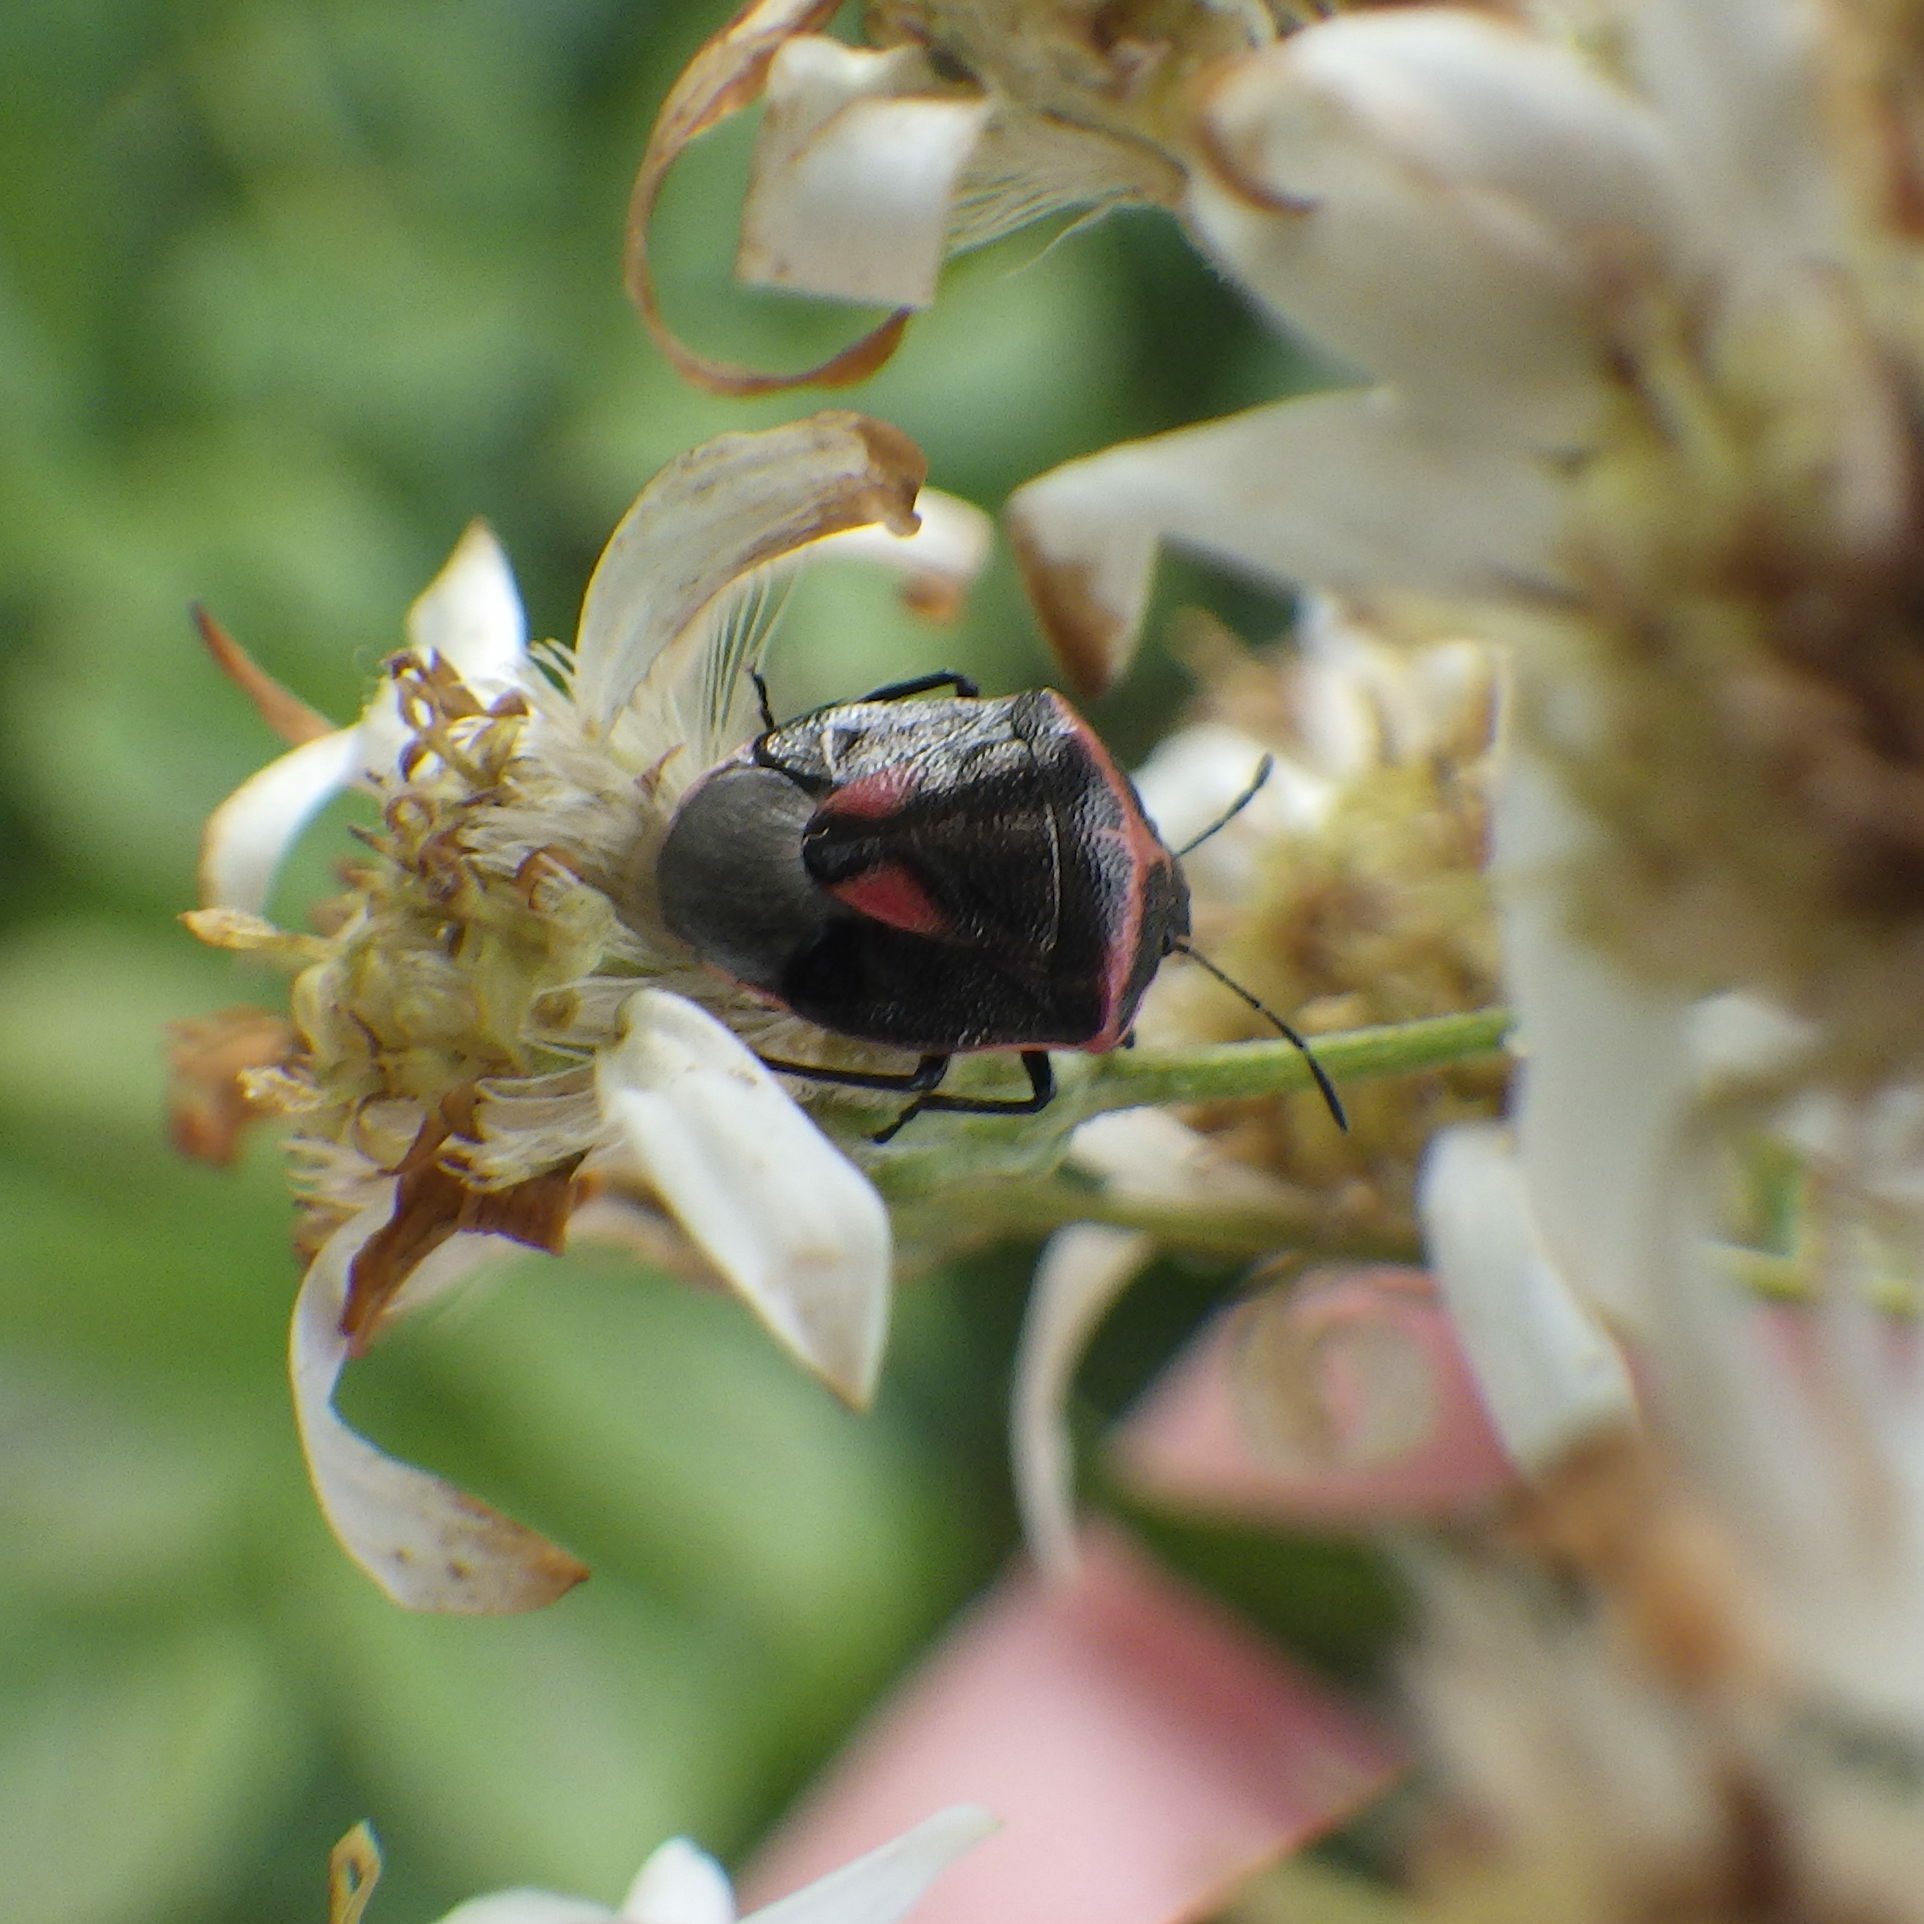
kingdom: Animalia
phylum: Arthropoda
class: Insecta
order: Hemiptera
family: Pentatomidae
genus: Cosmopepla
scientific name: Cosmopepla lintneriana
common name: Twice-stabbed stink bug
